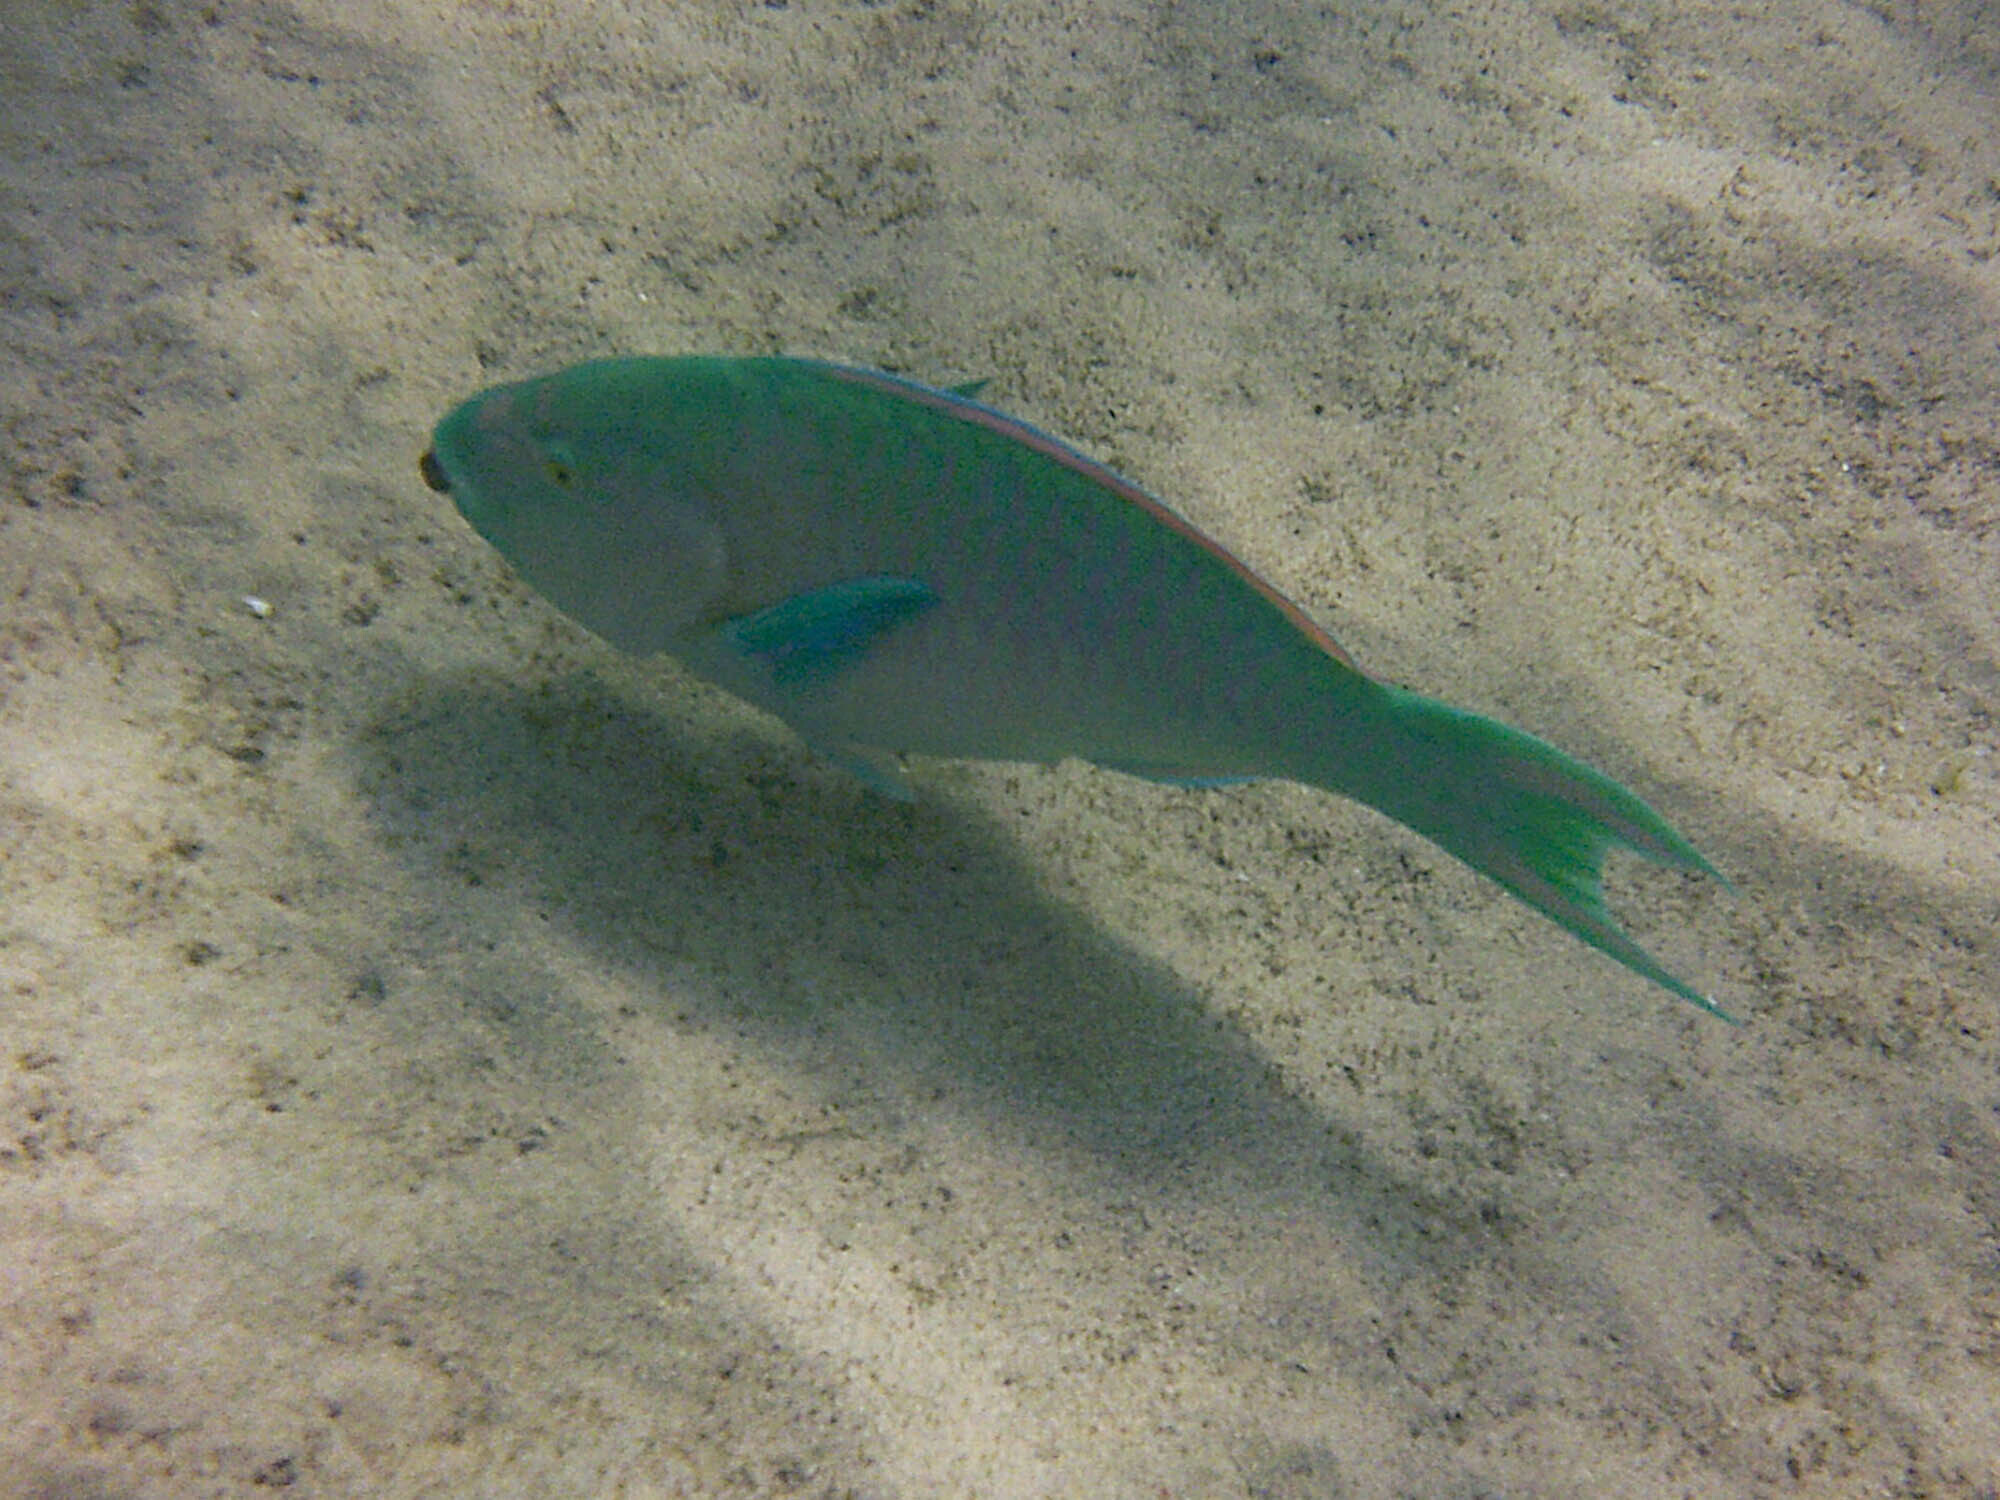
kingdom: Animalia
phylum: Chordata
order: Perciformes
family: Scaridae
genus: Scarus
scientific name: Scarus ghobban
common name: Blue-barred parrotfish
